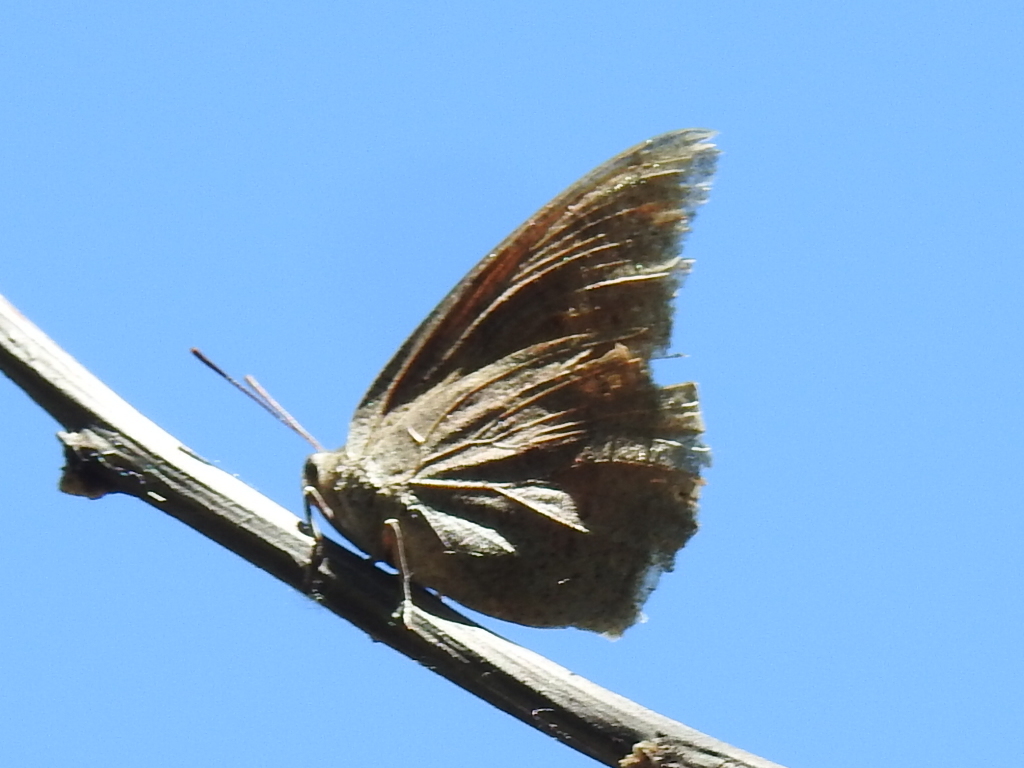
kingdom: Animalia
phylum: Arthropoda
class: Insecta
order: Lepidoptera
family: Nymphalidae
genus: Anaea
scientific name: Anaea andria
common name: Goatweed leafwing
